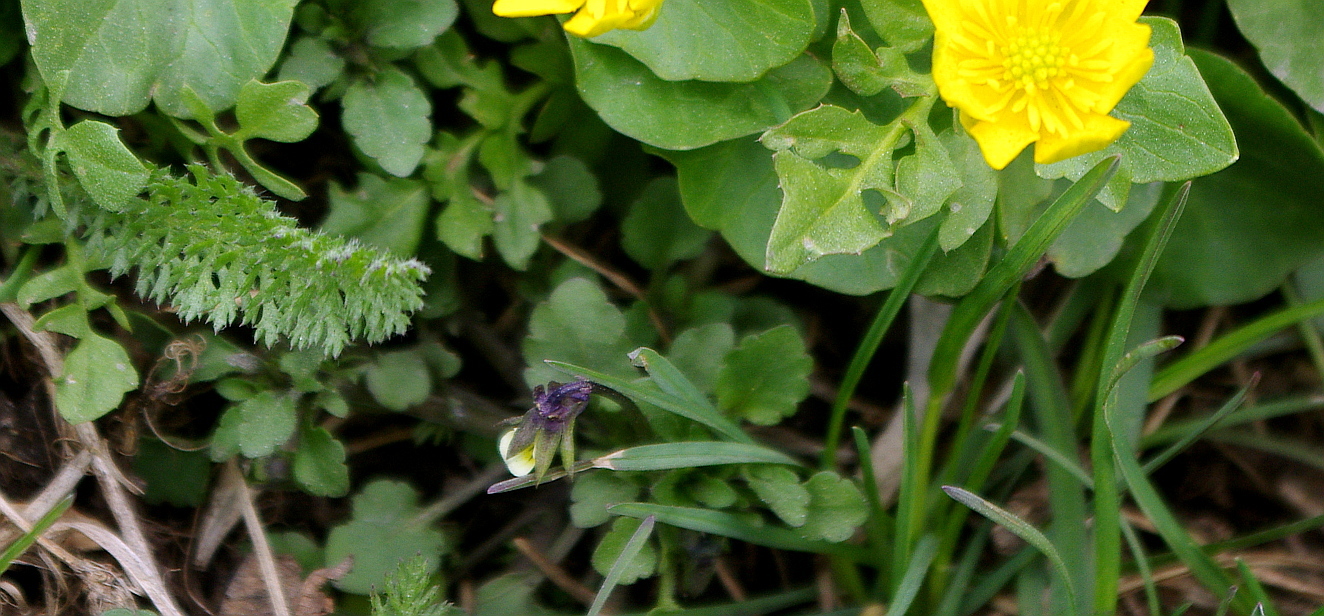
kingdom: Plantae
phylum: Tracheophyta
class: Magnoliopsida
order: Malpighiales
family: Violaceae
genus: Viola
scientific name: Viola arvensis
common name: Field pansy
